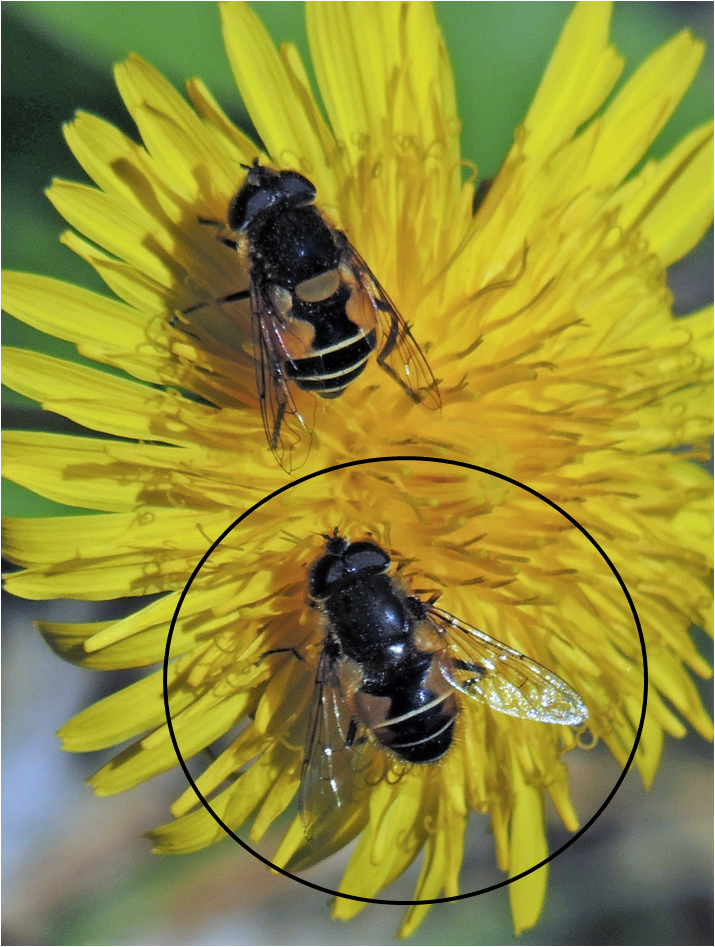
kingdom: Animalia
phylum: Arthropoda
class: Insecta
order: Diptera
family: Syrphidae
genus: Eristalis
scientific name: Eristalis croceimaculata
